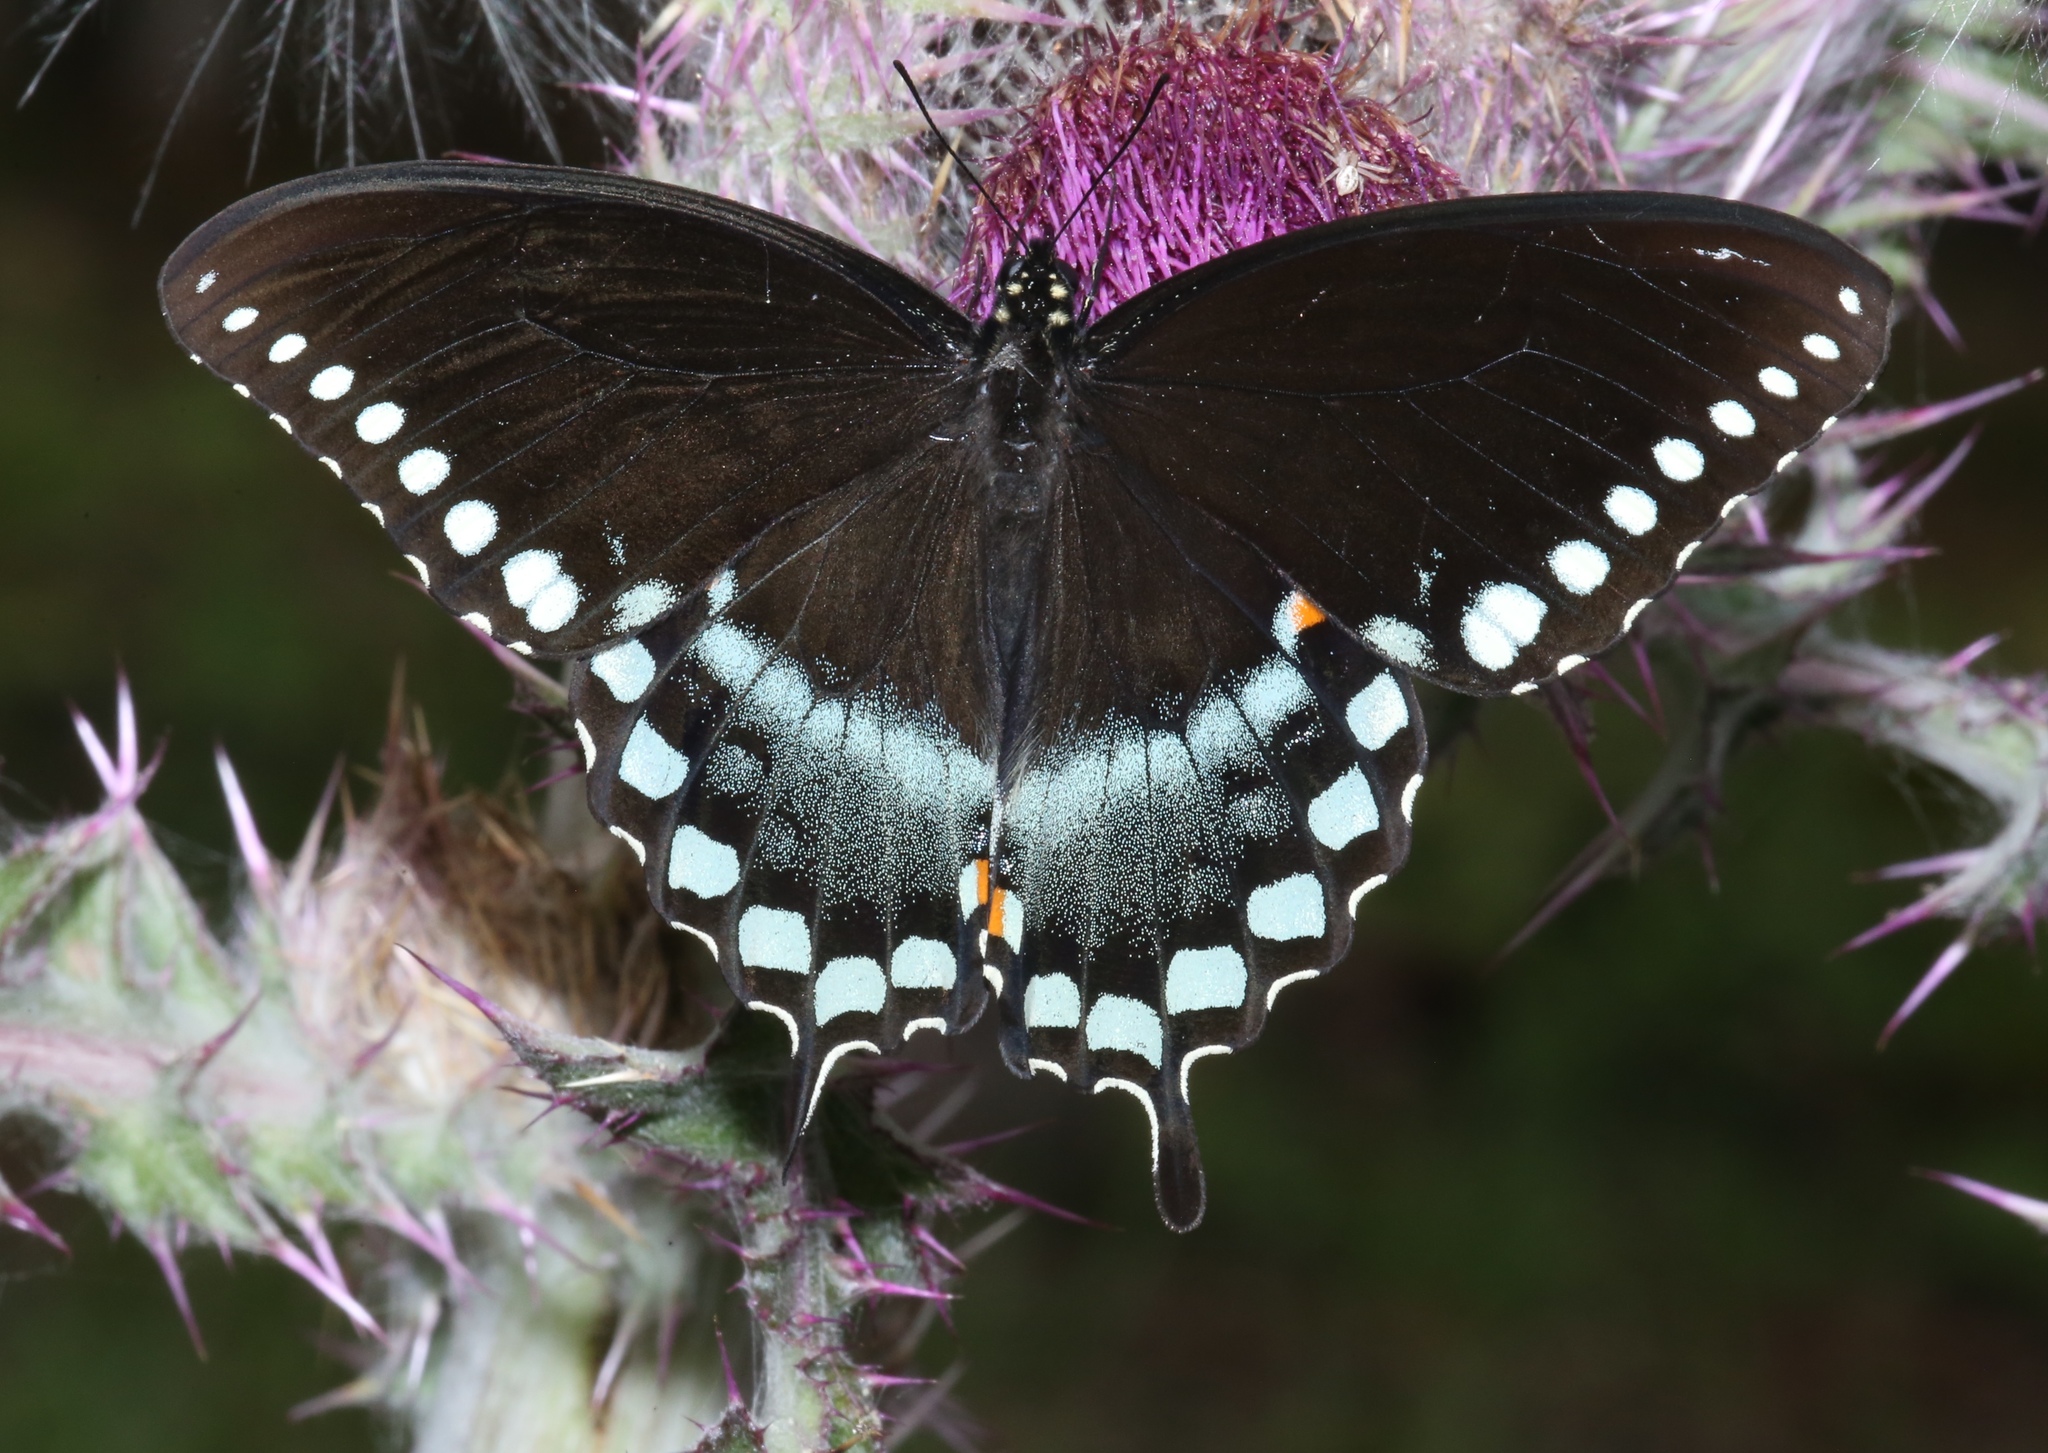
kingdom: Animalia
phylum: Arthropoda
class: Insecta
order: Lepidoptera
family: Papilionidae
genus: Papilio
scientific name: Papilio troilus
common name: Spicebush swallowtail
